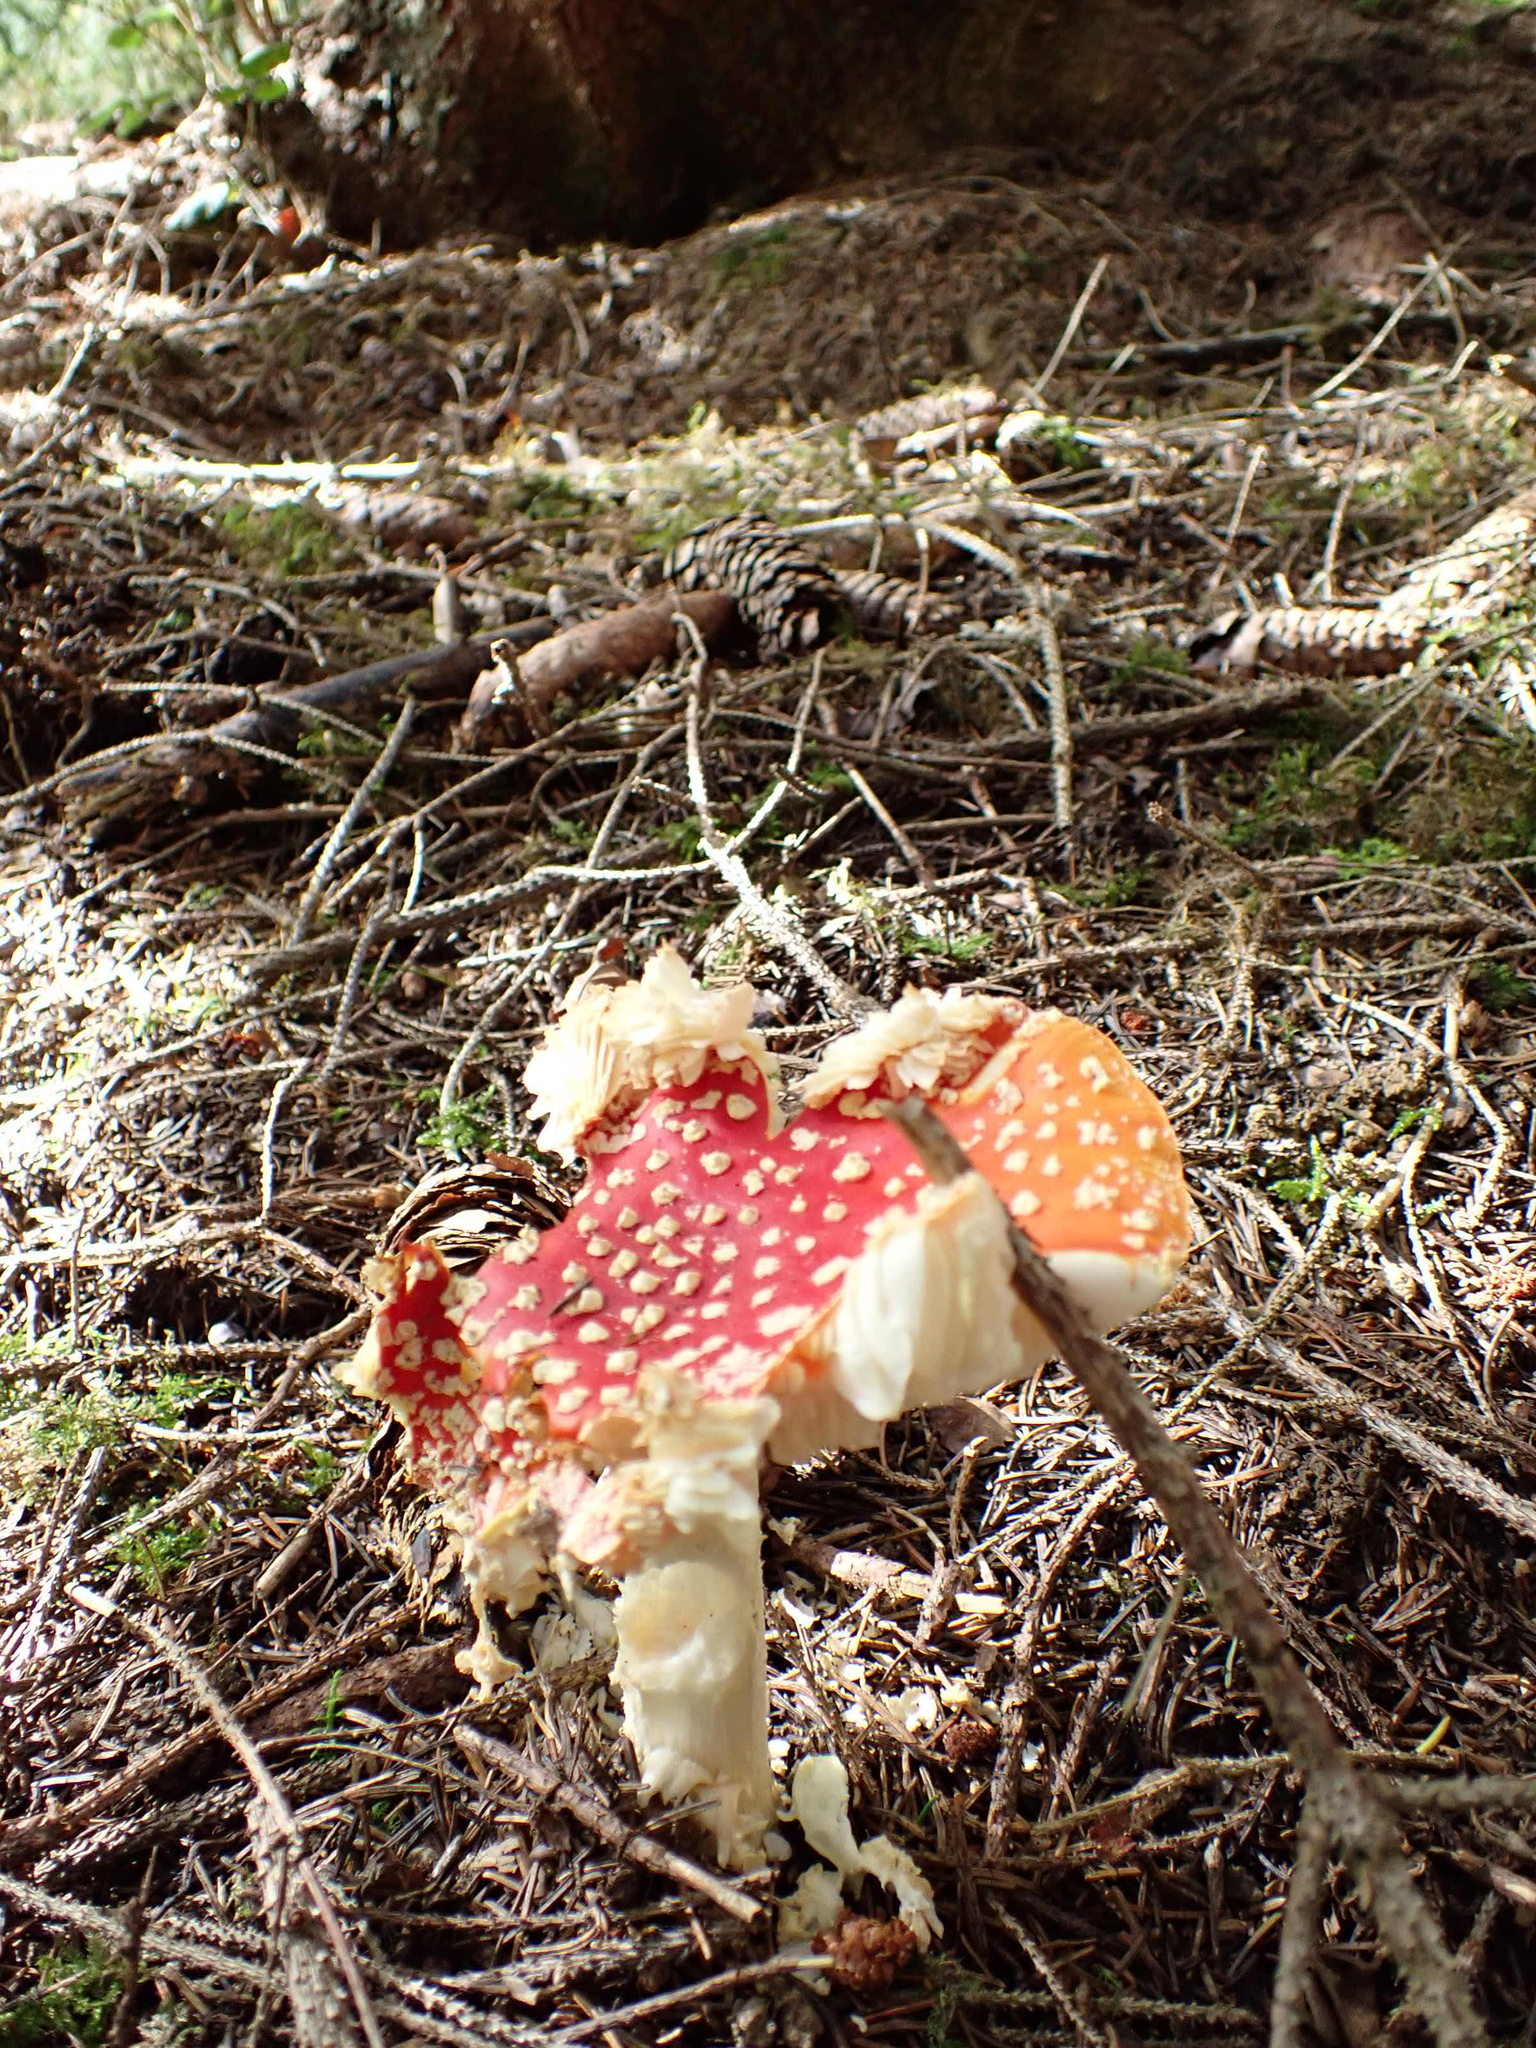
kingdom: Fungi
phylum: Basidiomycota
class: Agaricomycetes
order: Agaricales
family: Amanitaceae
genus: Amanita
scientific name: Amanita muscaria
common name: Fly agaric
